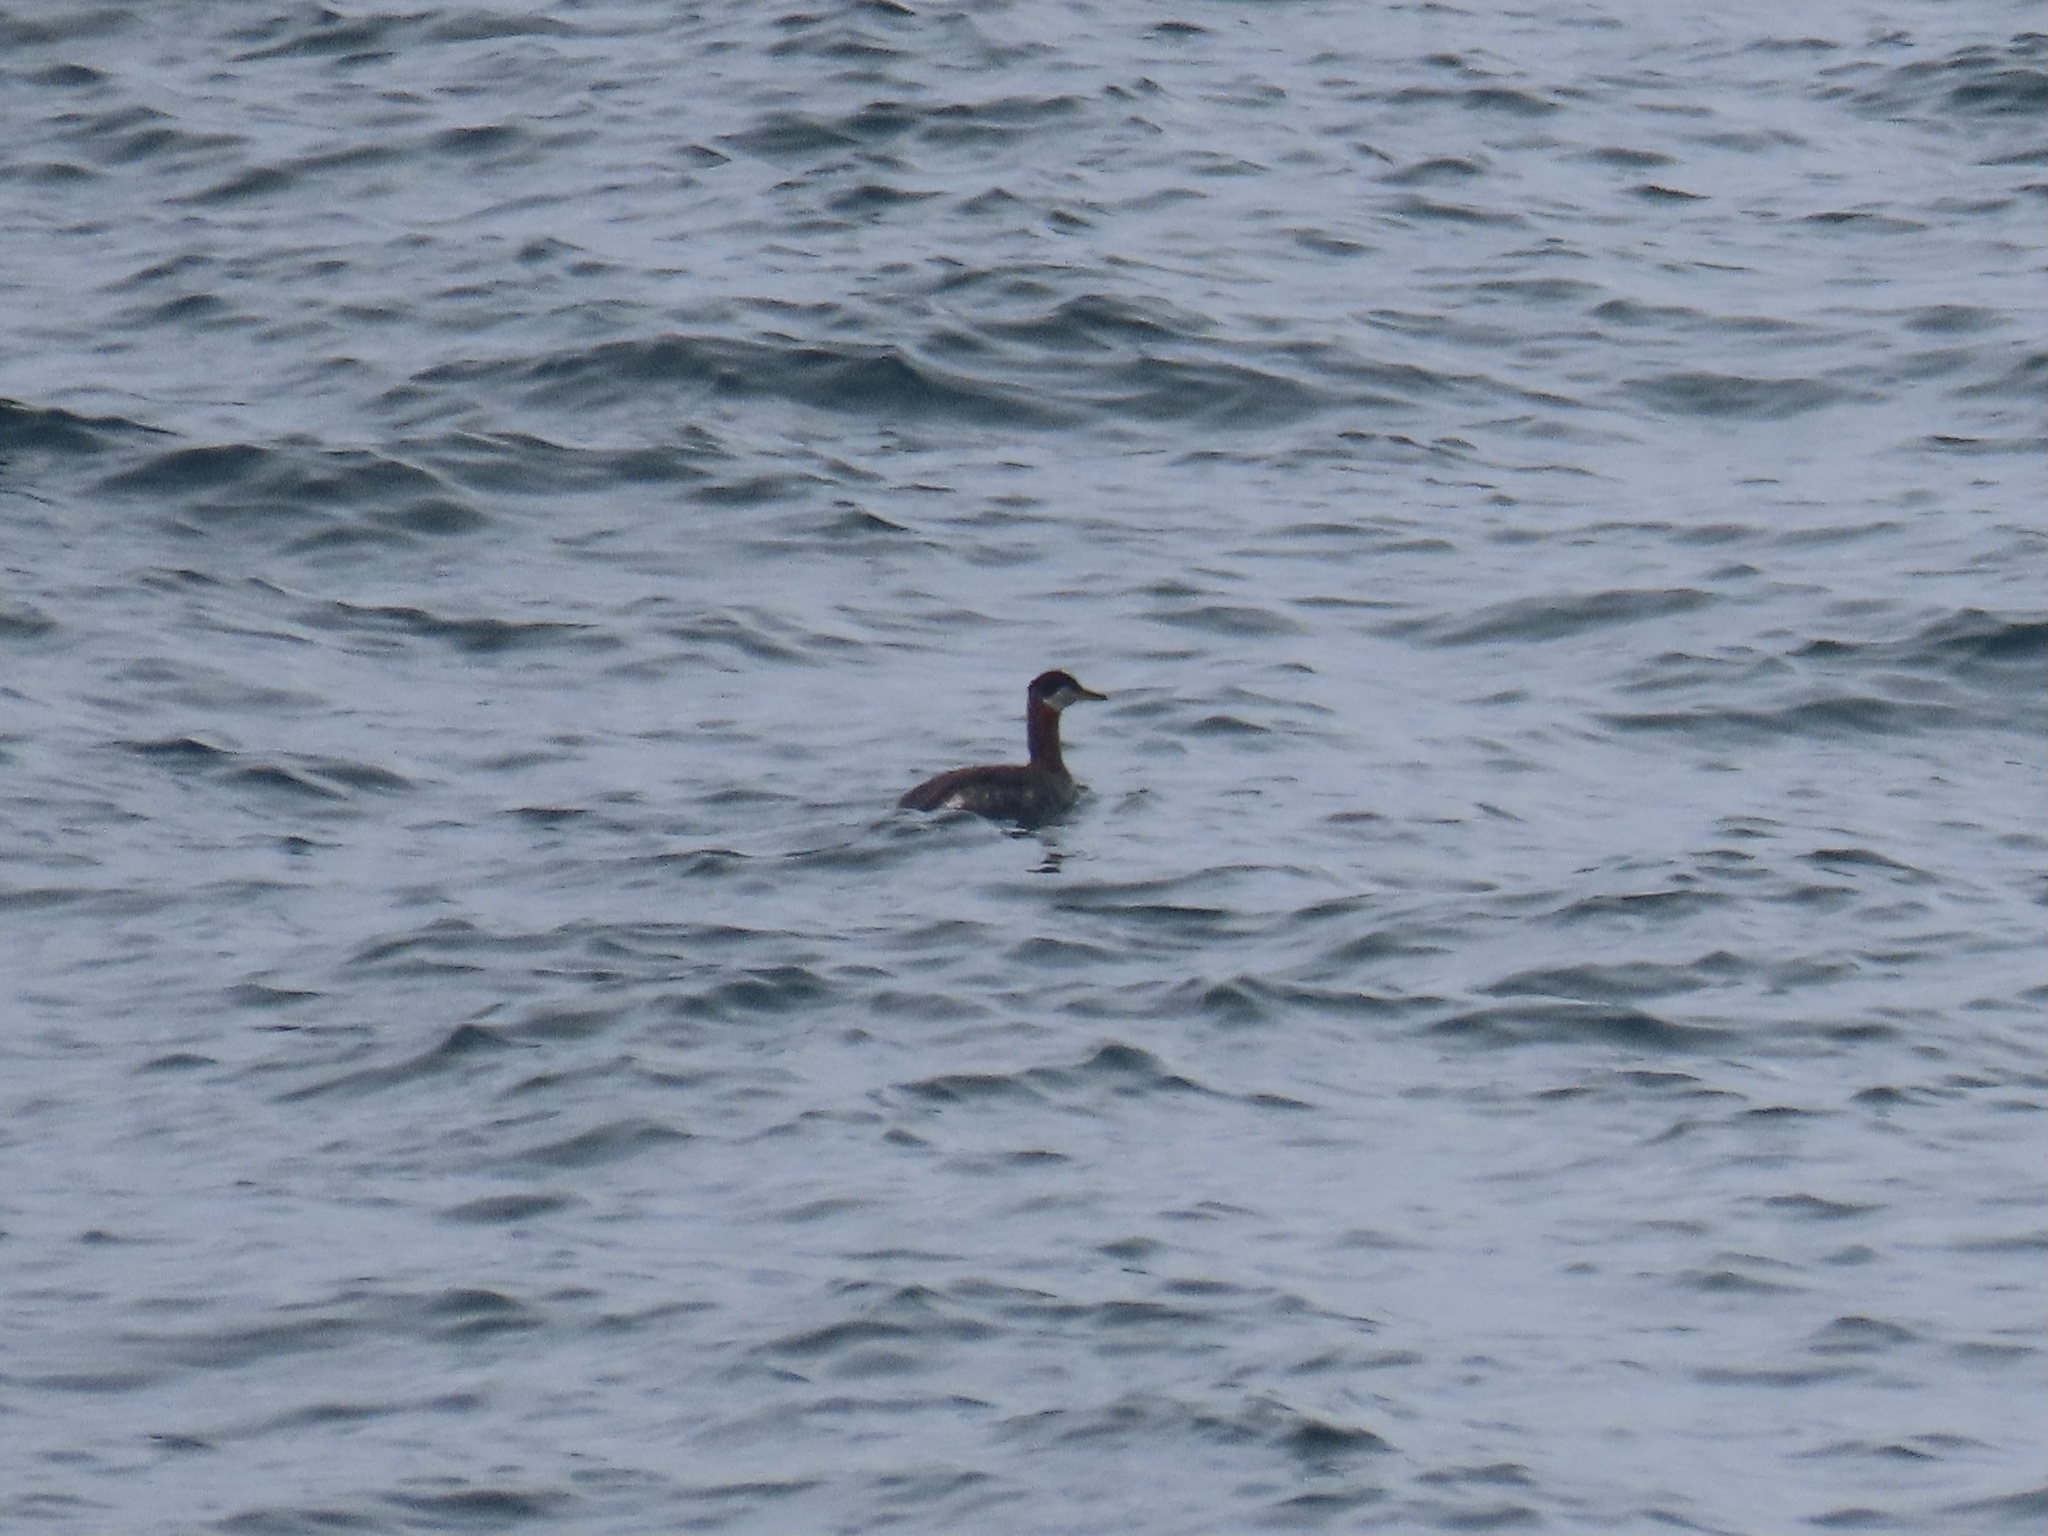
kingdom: Animalia
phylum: Chordata
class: Aves
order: Podicipediformes
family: Podicipedidae
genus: Podiceps
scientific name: Podiceps grisegena
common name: Red-necked grebe
